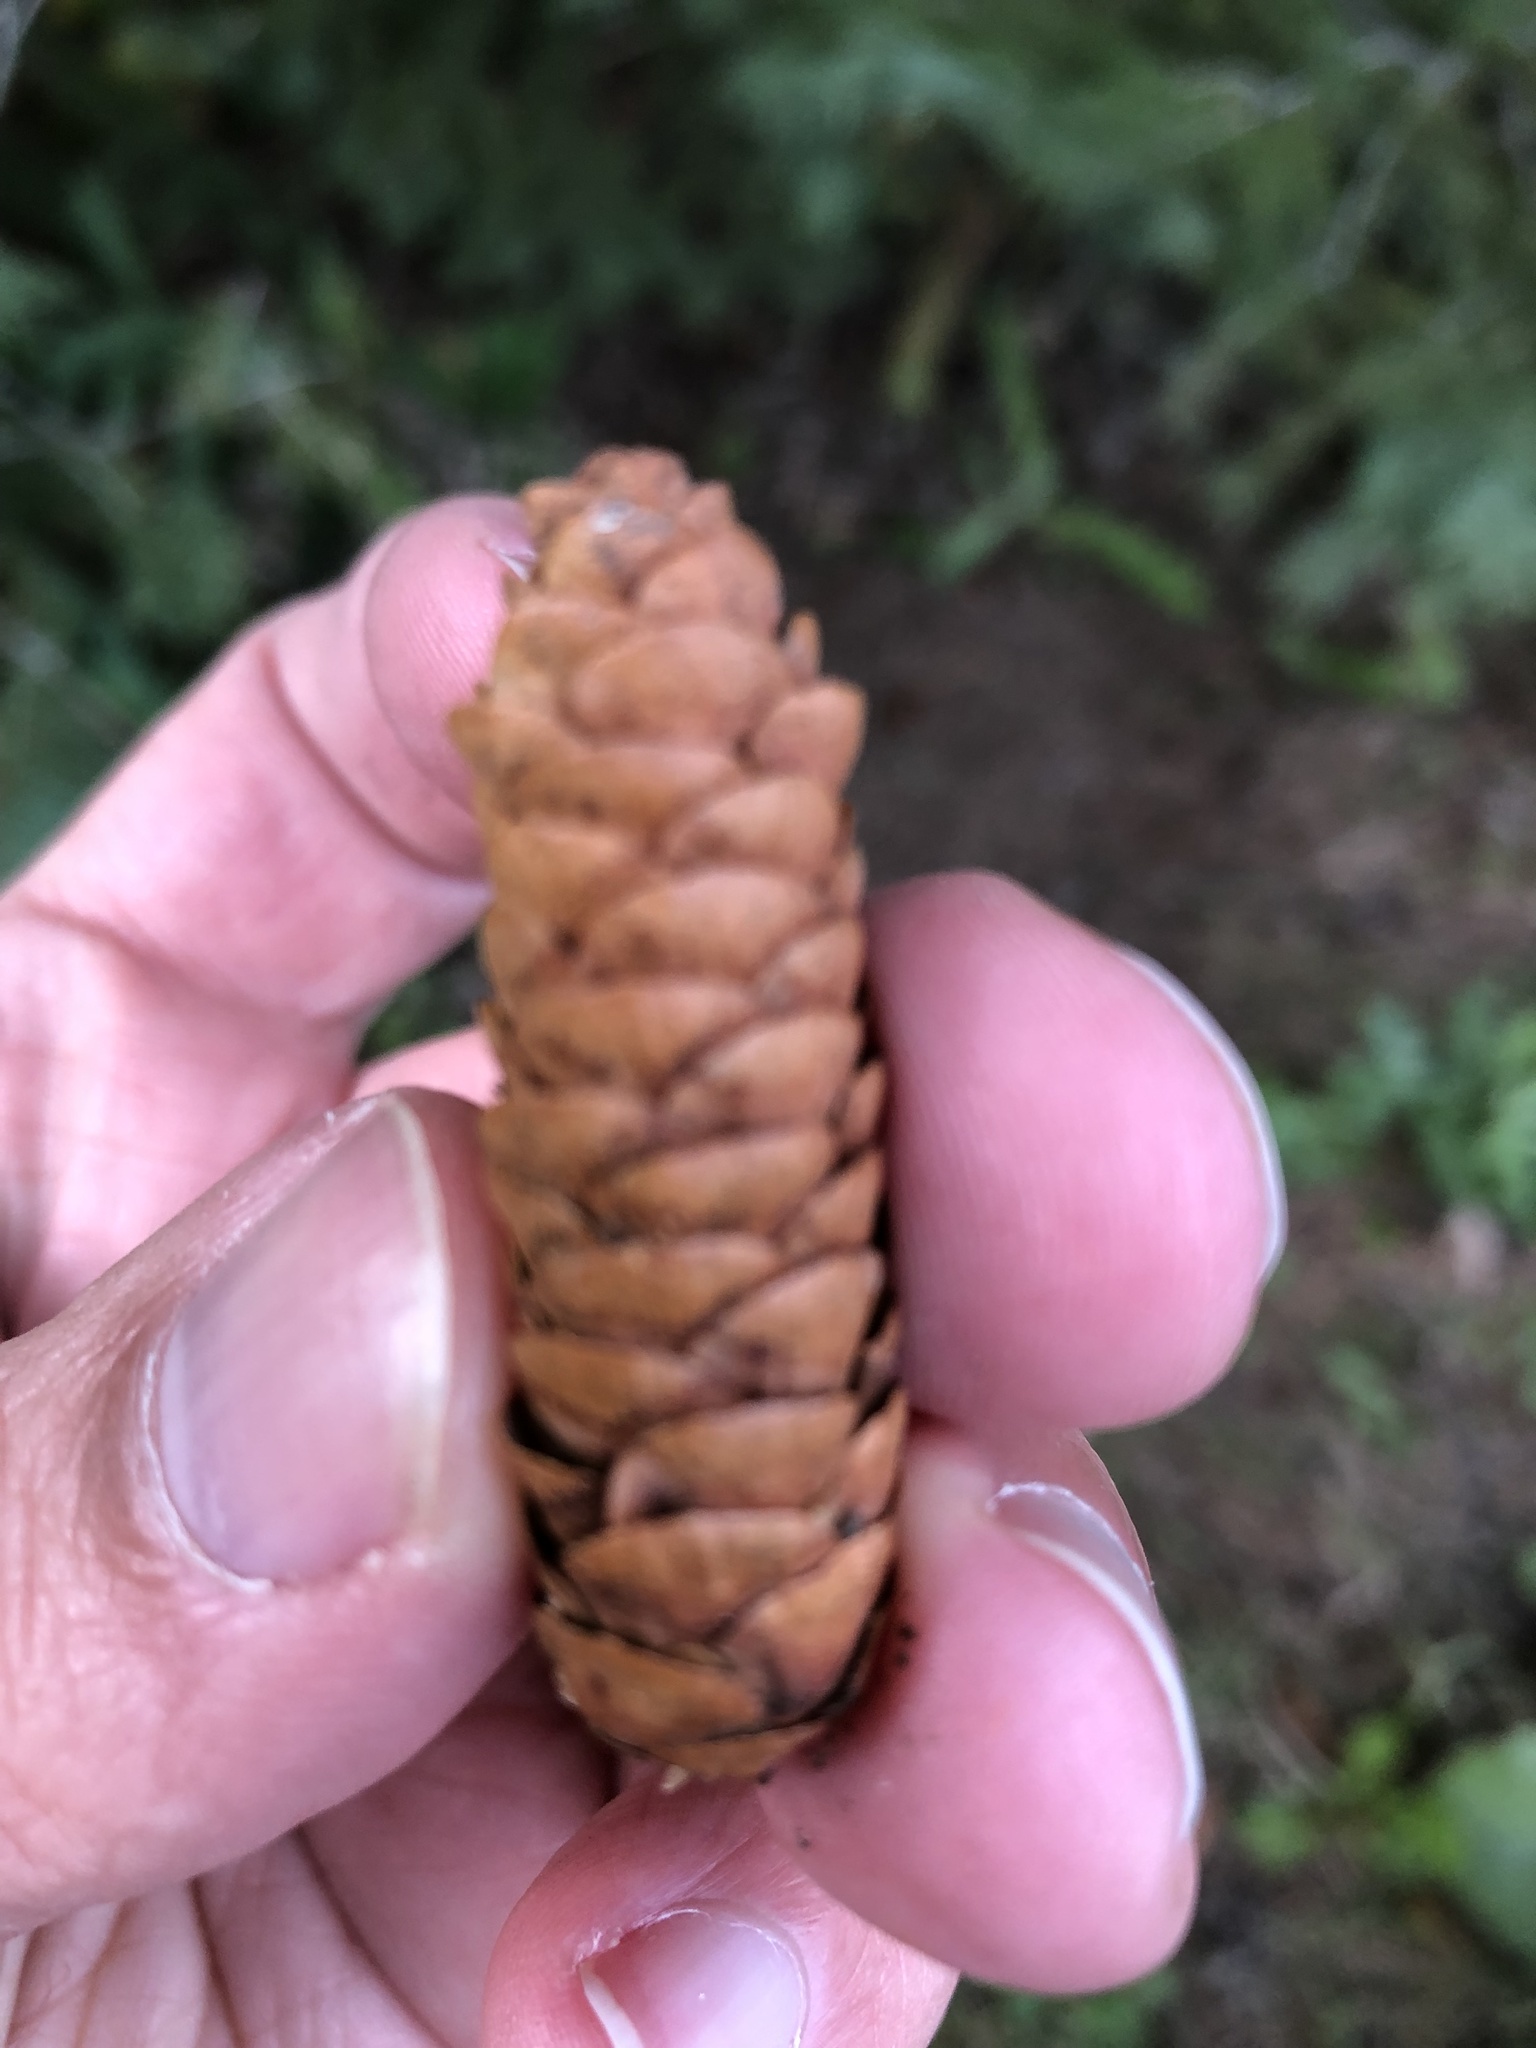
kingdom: Plantae
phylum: Tracheophyta
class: Pinopsida
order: Pinales
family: Pinaceae
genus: Picea
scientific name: Picea glauca
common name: White spruce
